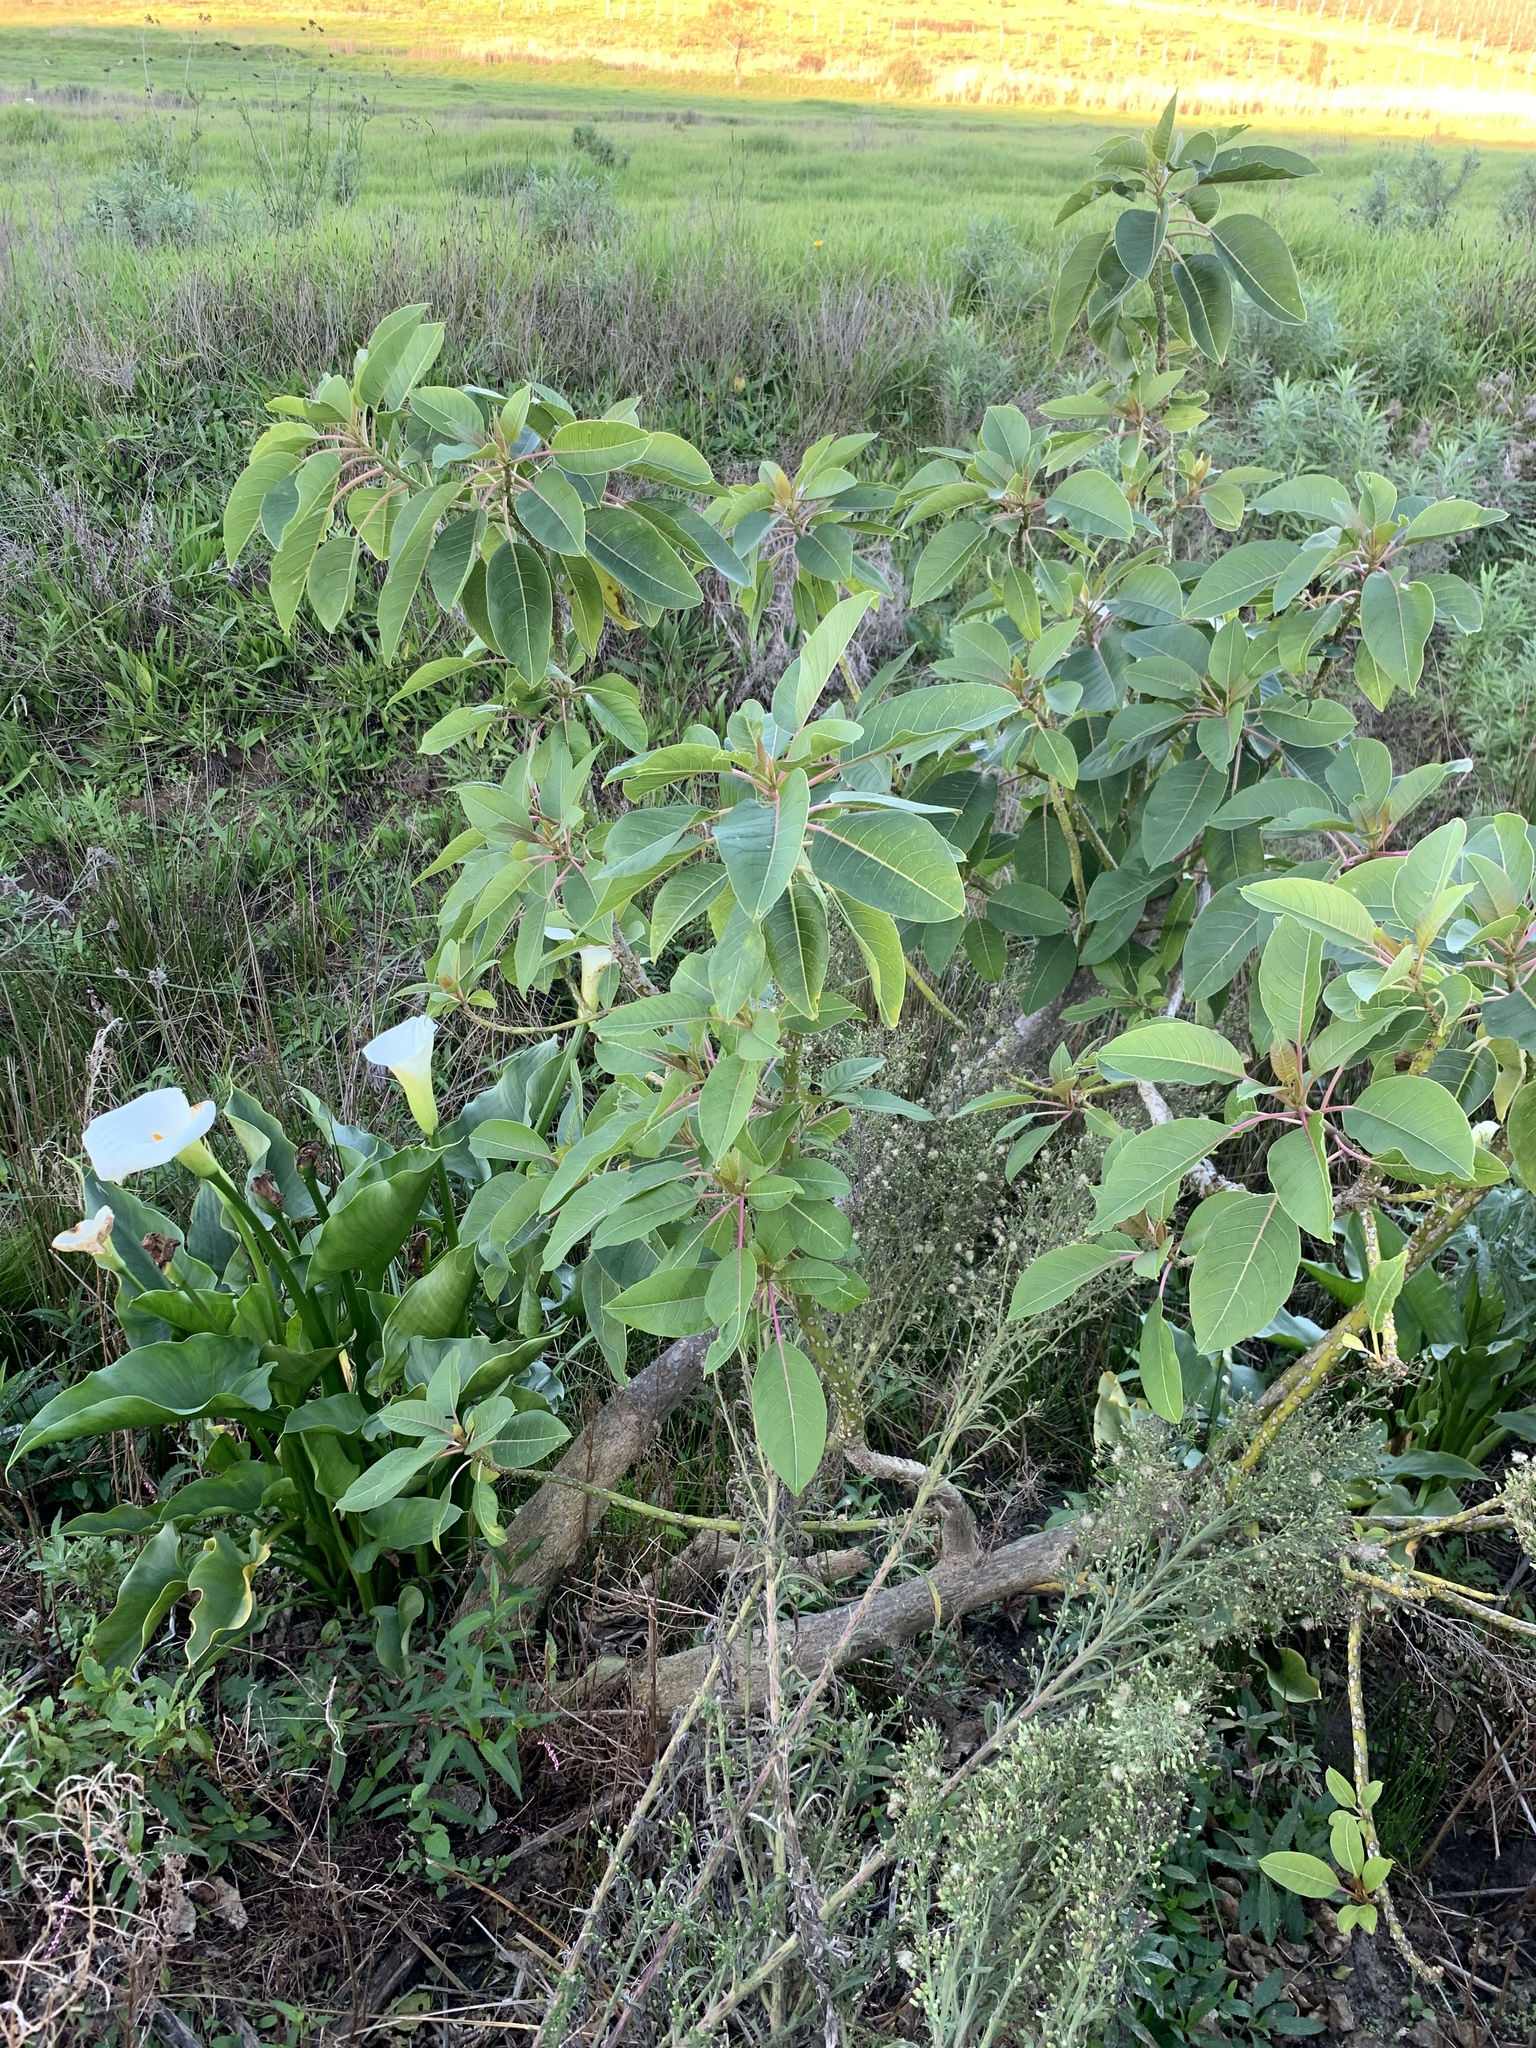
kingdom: Plantae
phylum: Tracheophyta
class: Magnoliopsida
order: Caryophyllales
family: Phytolaccaceae
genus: Phytolacca
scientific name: Phytolacca dioica
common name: Pokeweed
